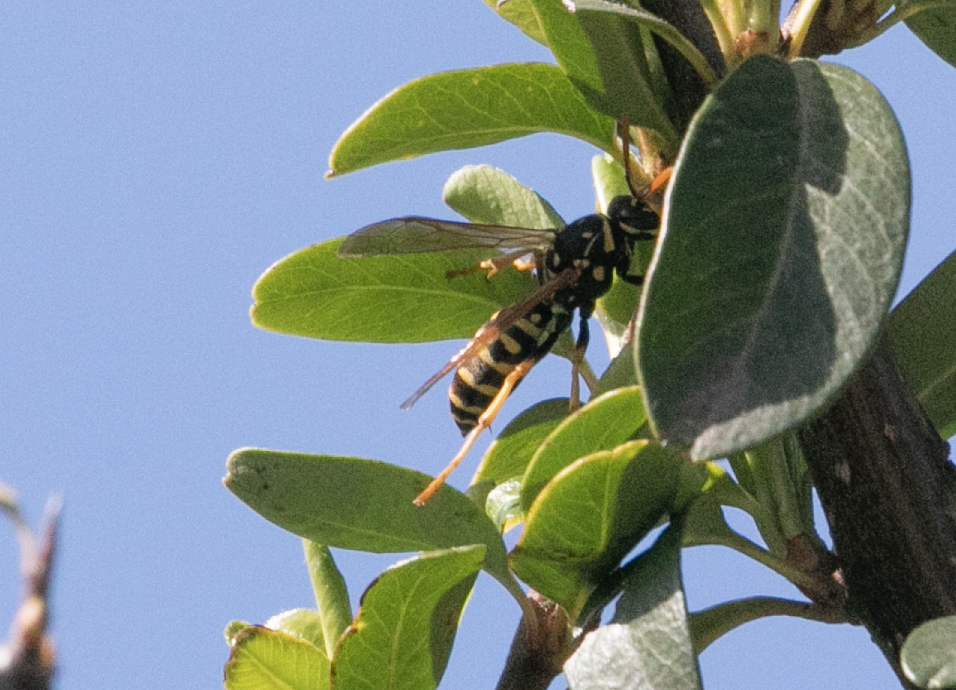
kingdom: Animalia
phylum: Arthropoda
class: Insecta
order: Hymenoptera
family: Eumenidae
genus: Polistes
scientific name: Polistes dominula
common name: Paper wasp
